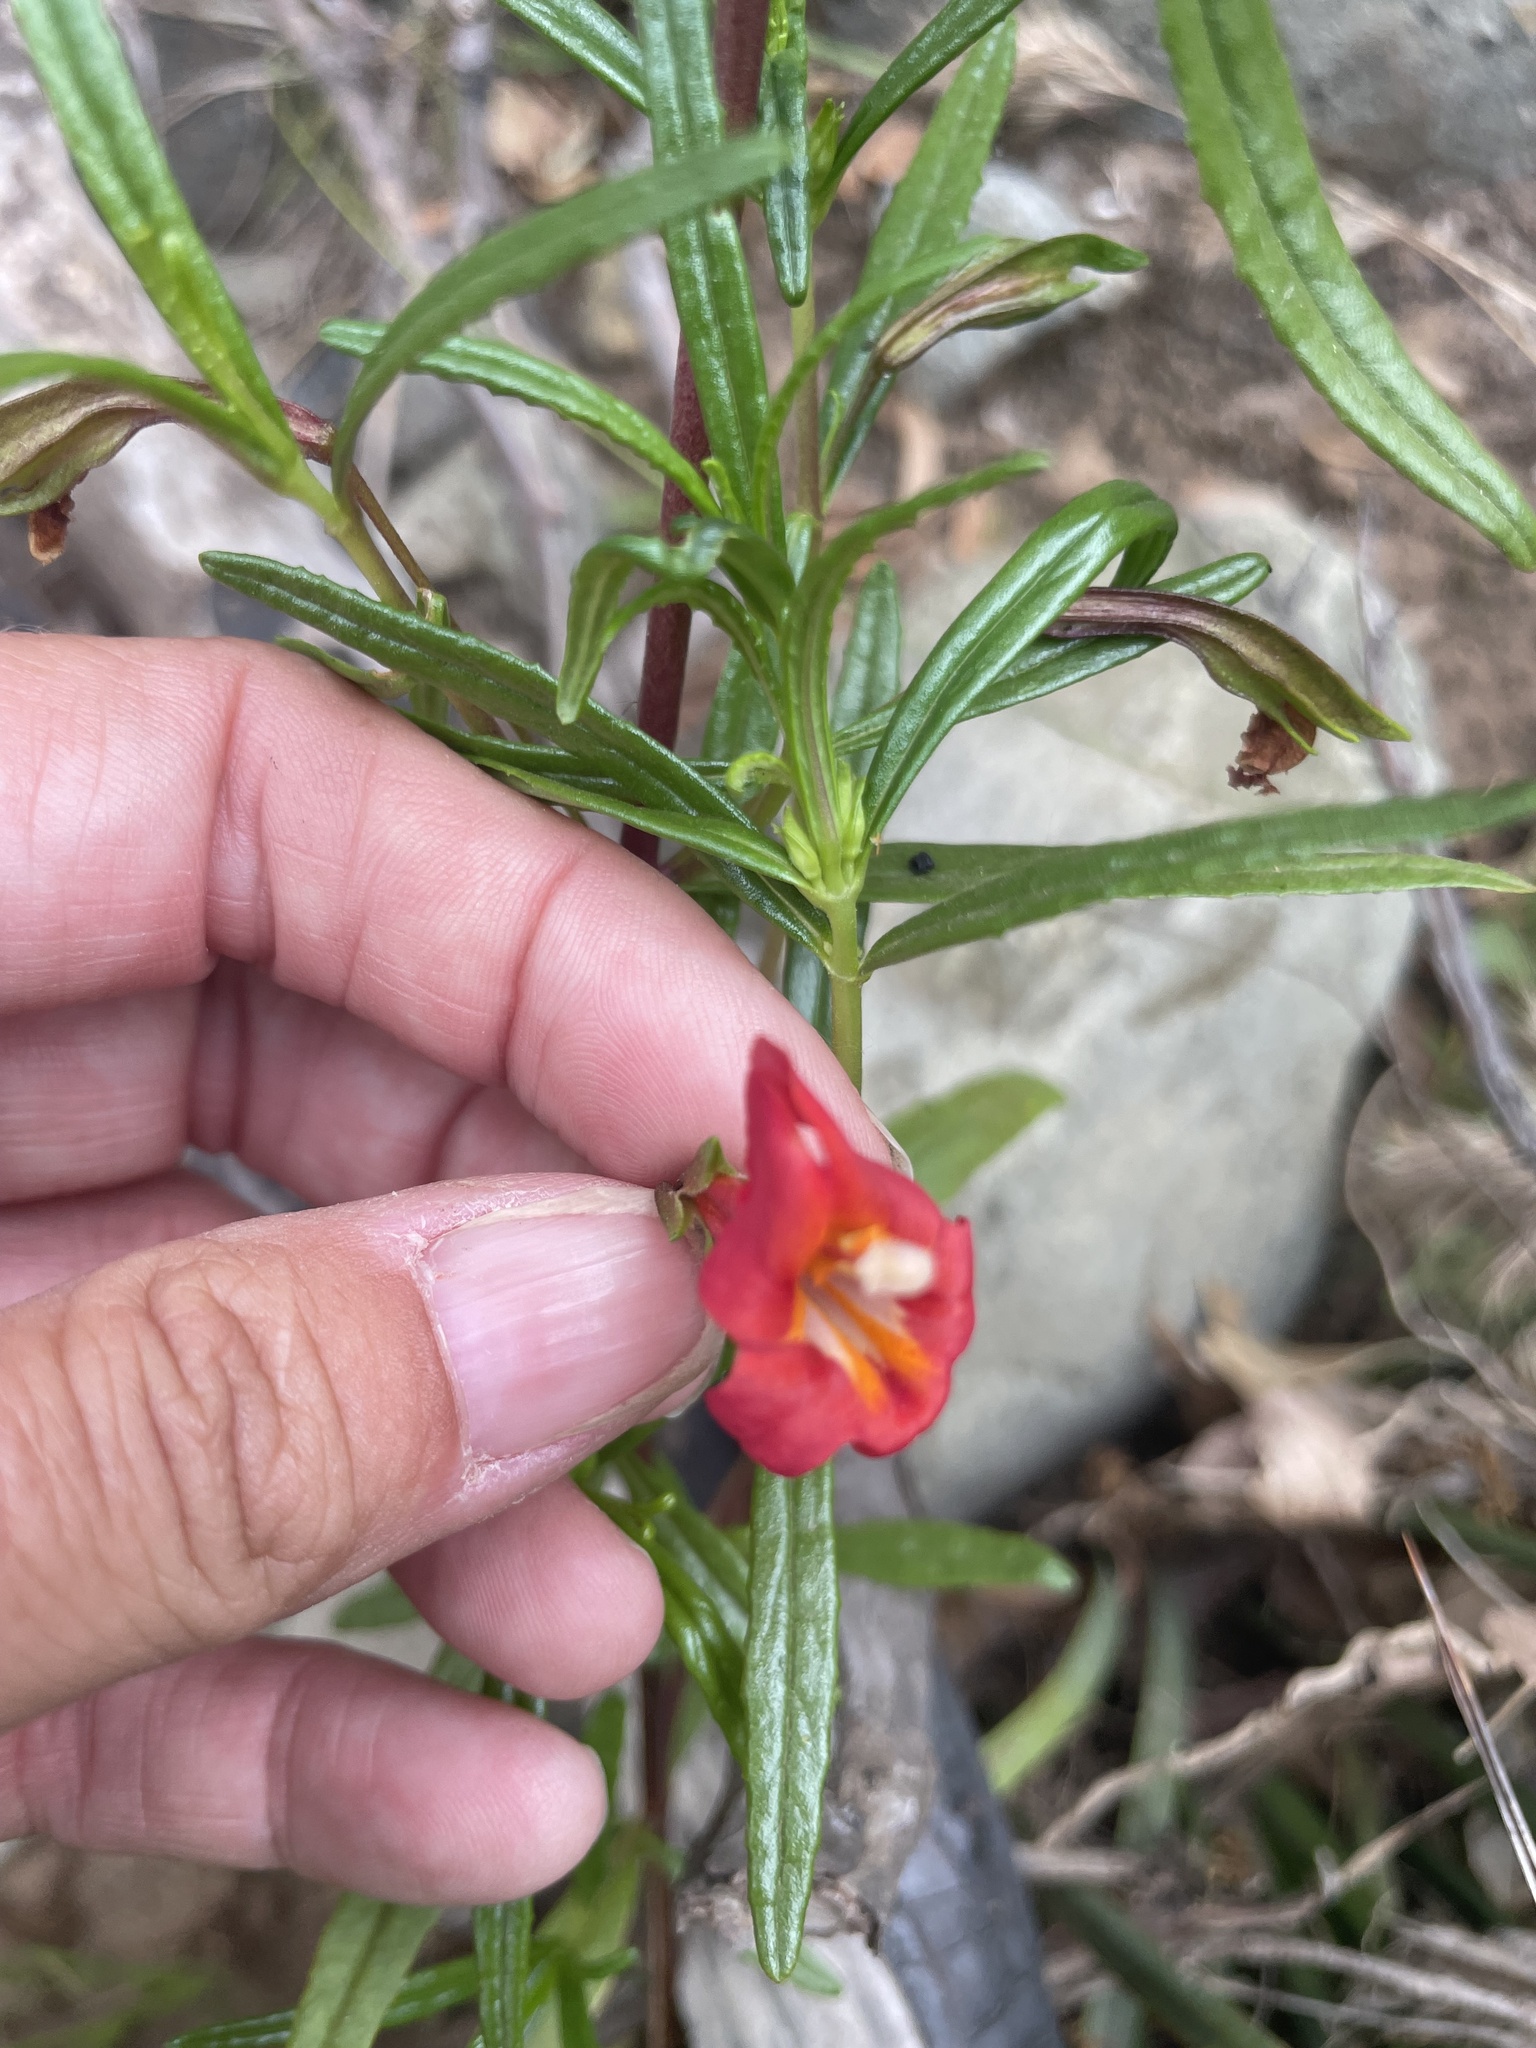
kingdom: Plantae
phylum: Tracheophyta
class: Magnoliopsida
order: Lamiales
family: Phrymaceae
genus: Diplacus
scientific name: Diplacus puniceus
